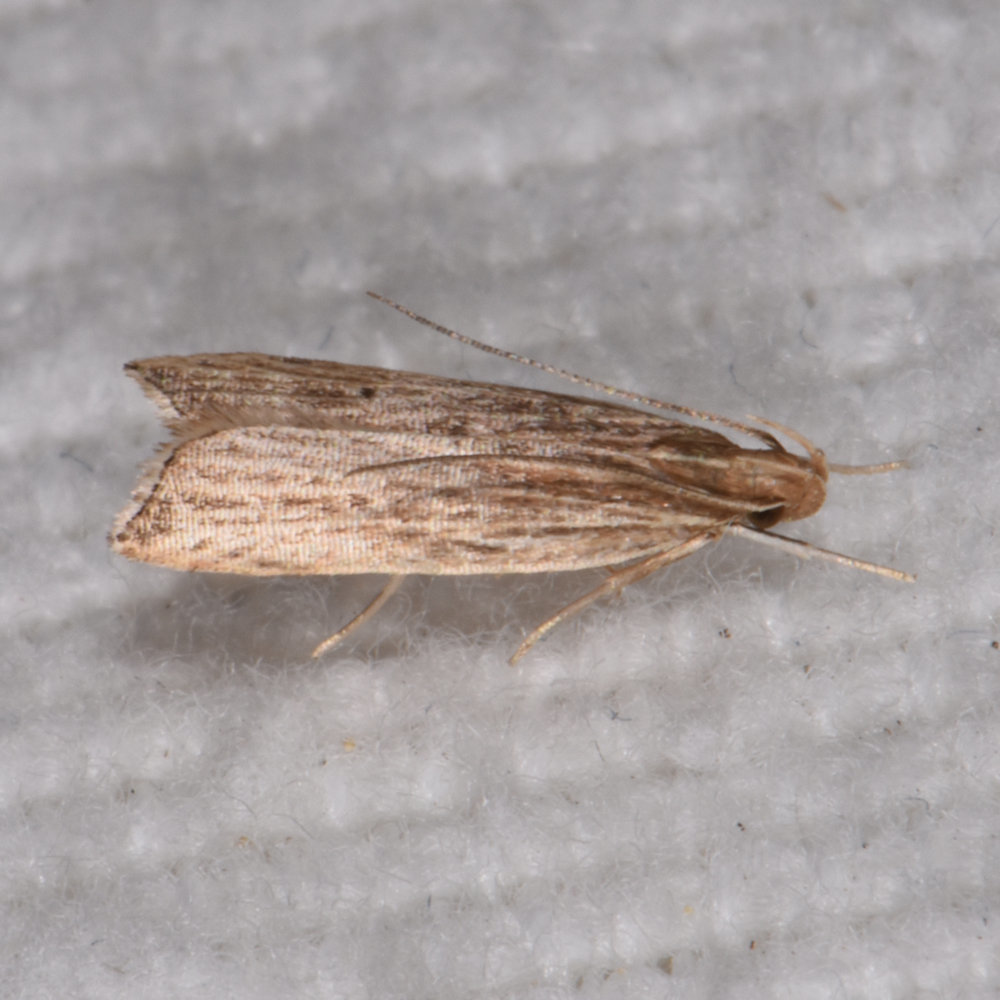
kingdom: Animalia
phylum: Arthropoda
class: Insecta
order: Lepidoptera
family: Gelechiidae
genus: Helcystogramma
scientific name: Helcystogramma hystricella
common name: Lanceolate moth
